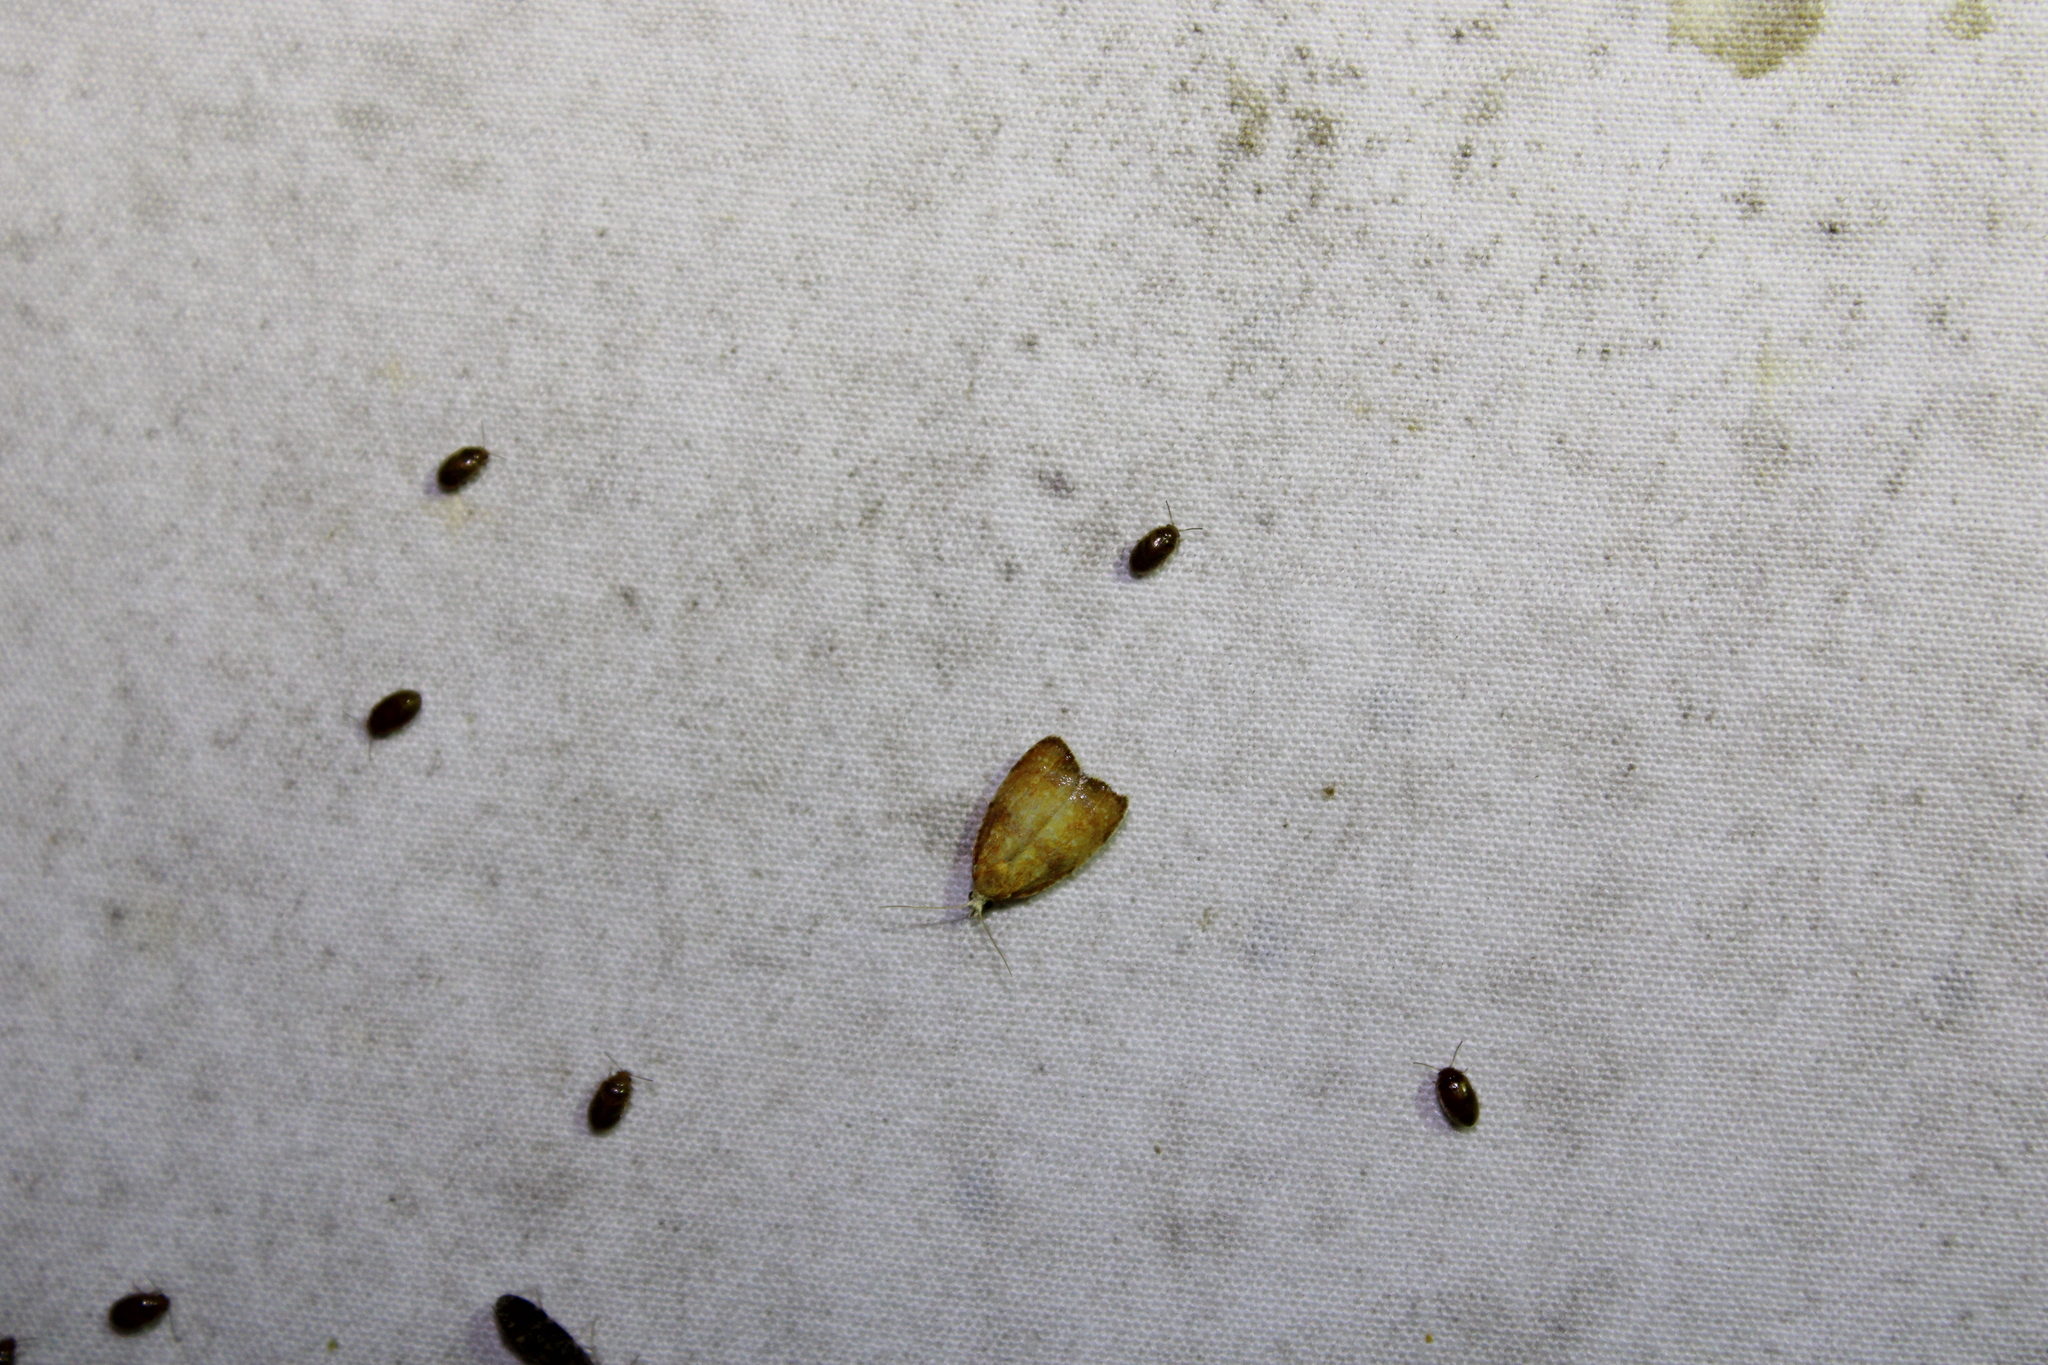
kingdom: Animalia
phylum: Arthropoda
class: Insecta
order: Lepidoptera
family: Tortricidae
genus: Acleris
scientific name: Acleris curvalana
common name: Blueberry leaftier moth
